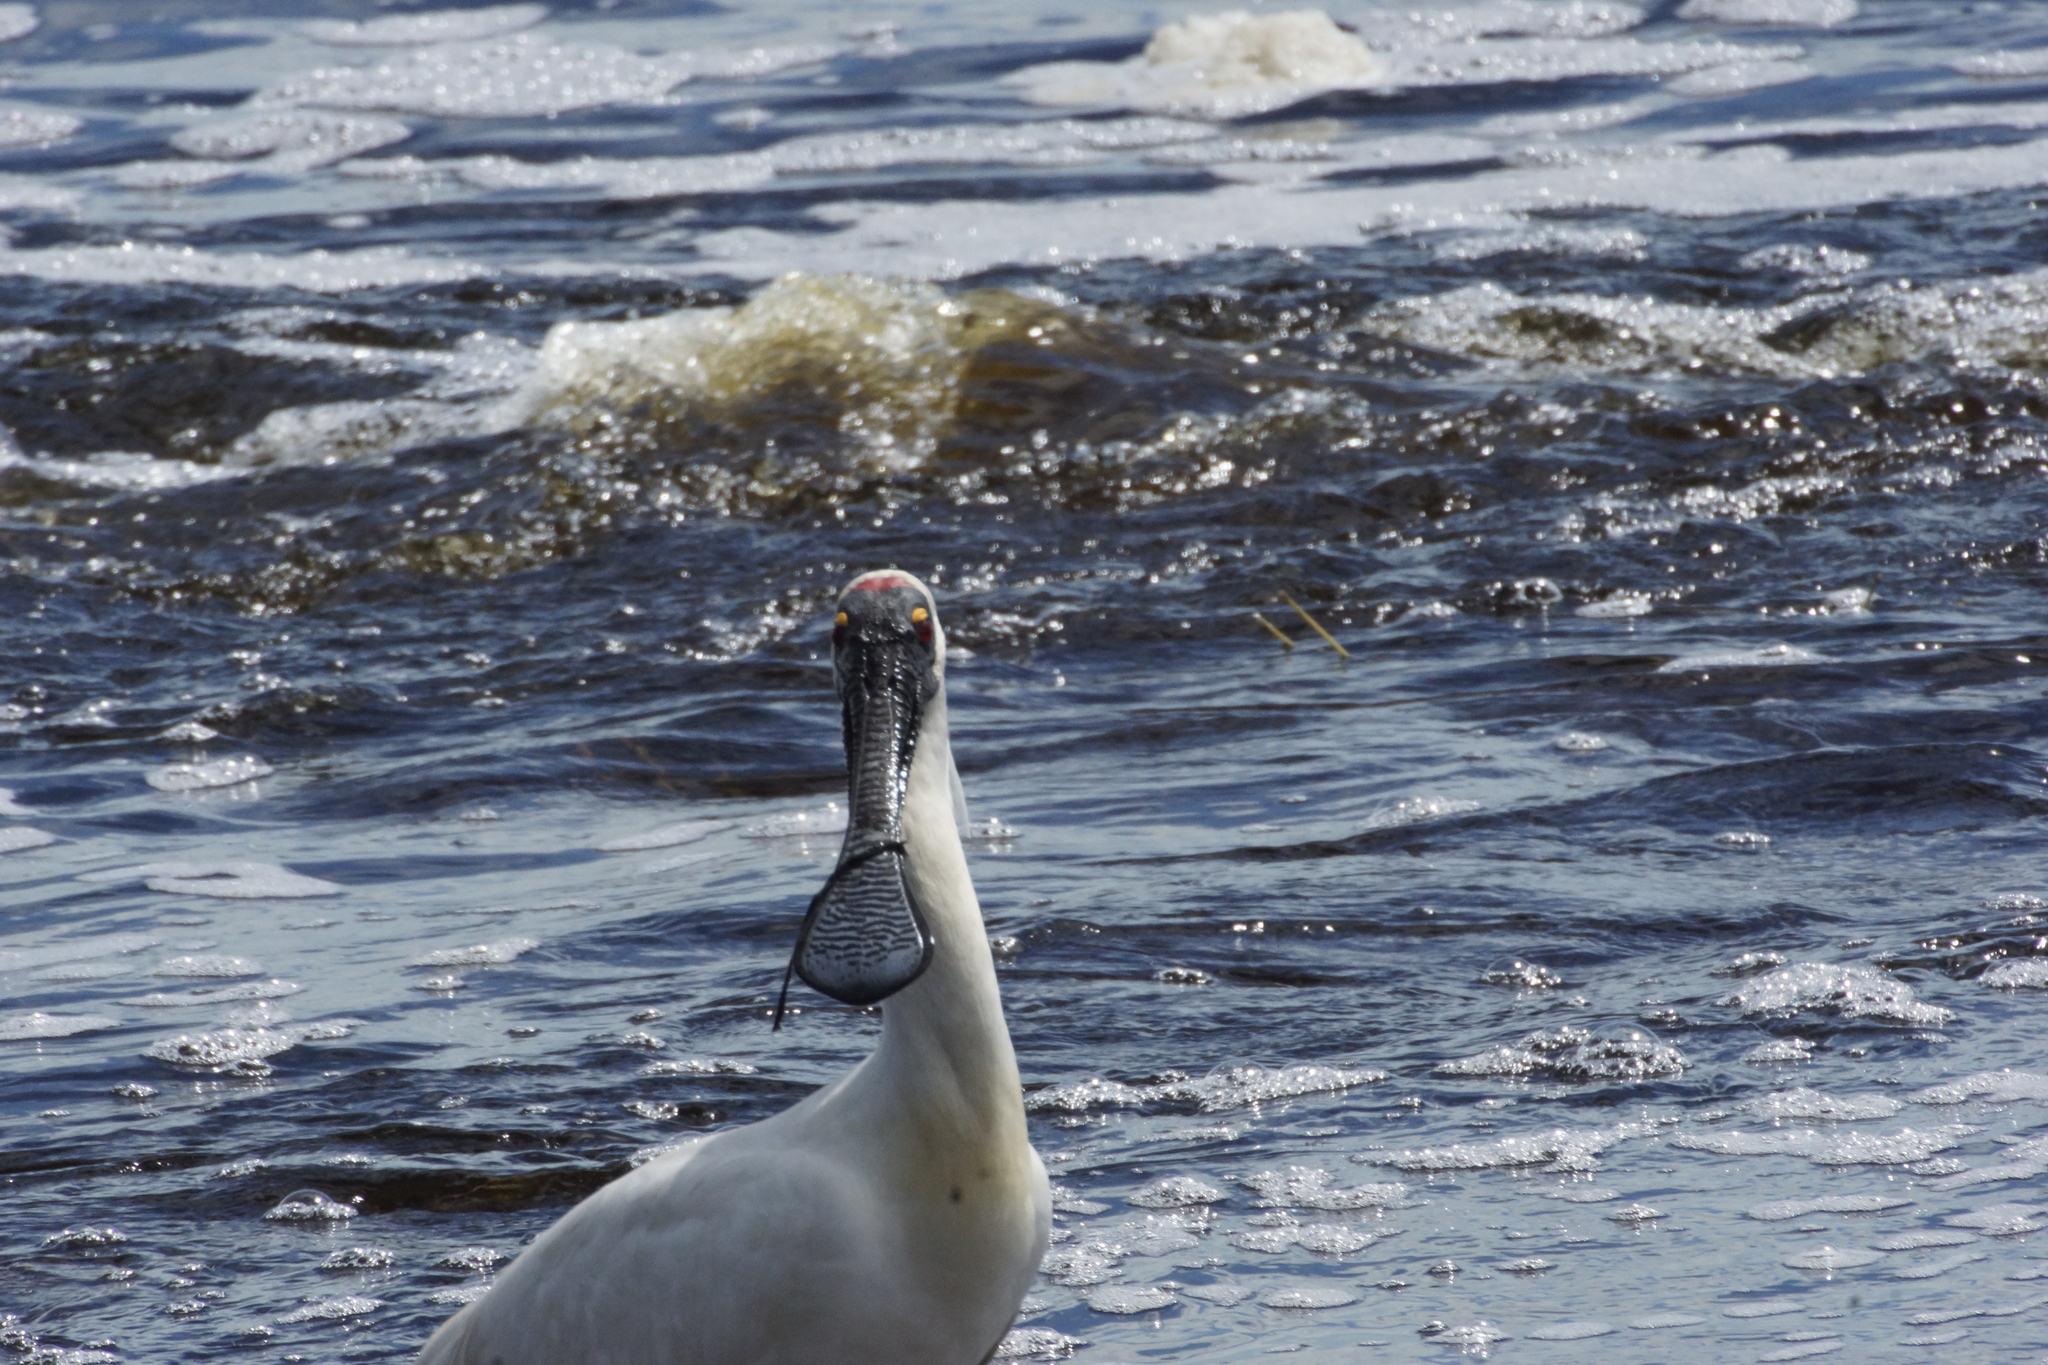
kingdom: Animalia
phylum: Chordata
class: Aves
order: Pelecaniformes
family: Threskiornithidae
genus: Platalea
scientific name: Platalea regia
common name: Royal spoonbill
